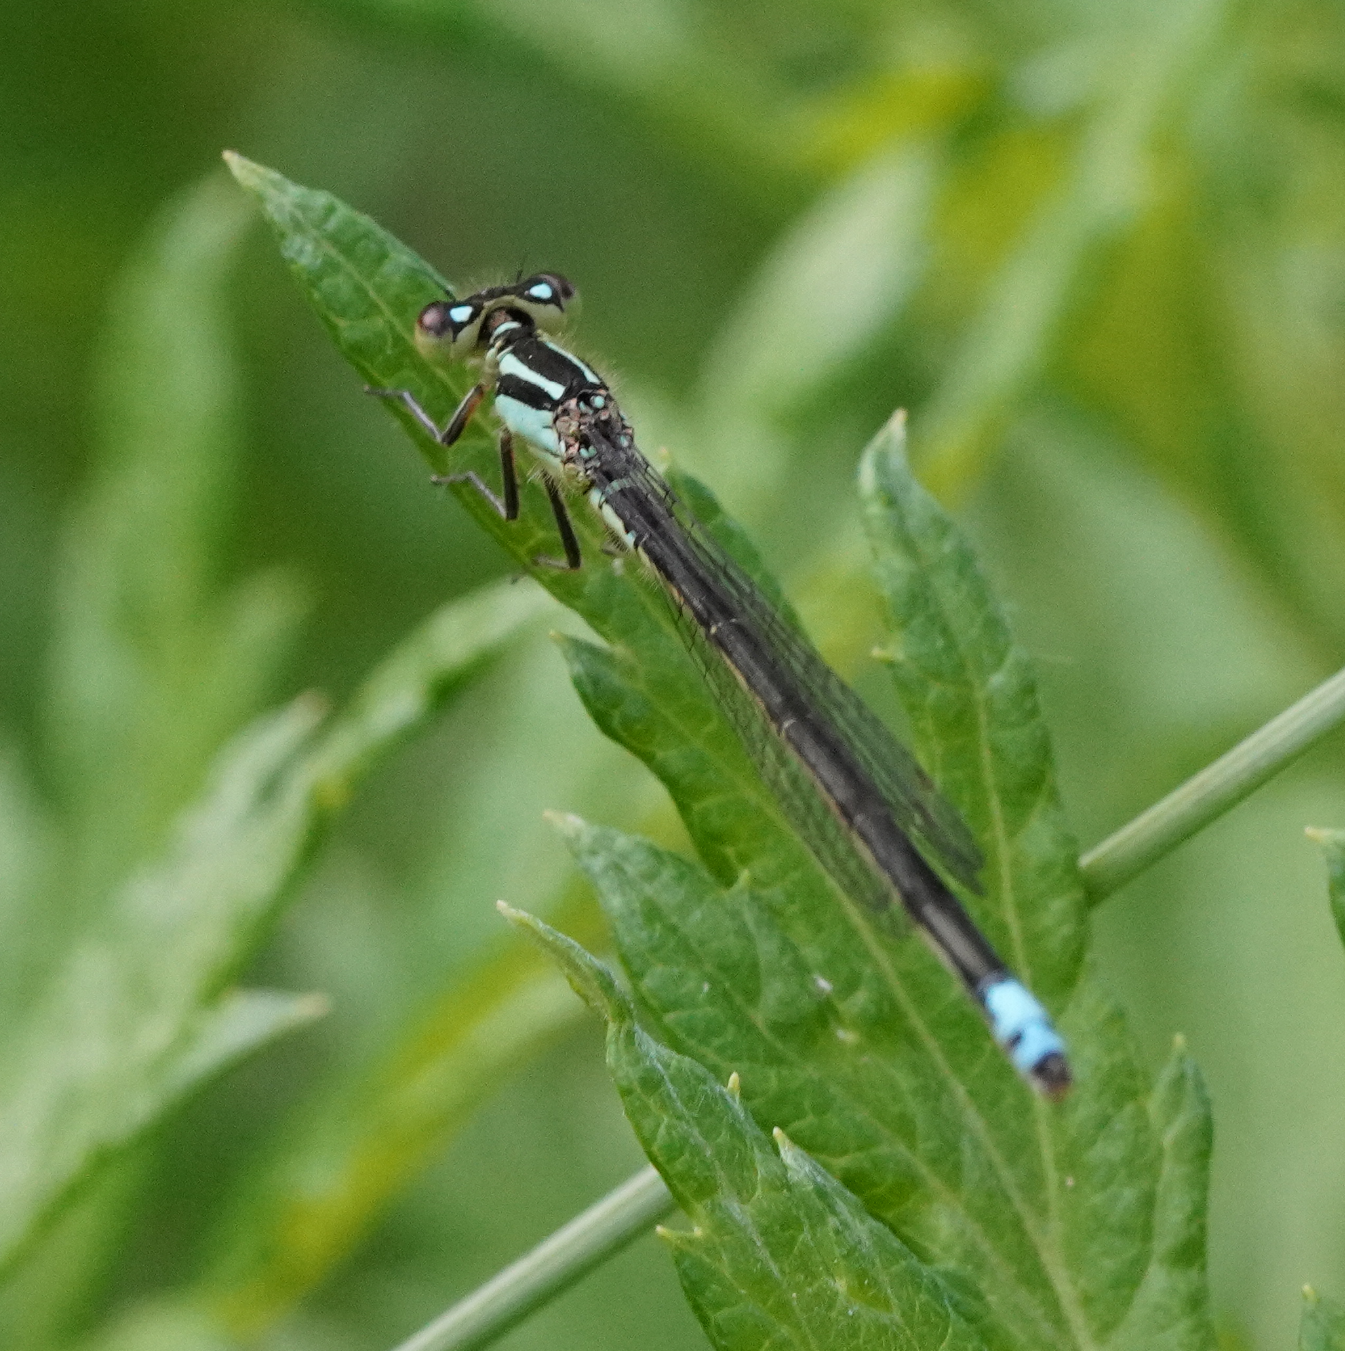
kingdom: Animalia
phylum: Arthropoda
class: Insecta
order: Odonata
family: Coenagrionidae
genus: Ischnura
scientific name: Ischnura verticalis
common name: Eastern forktail
